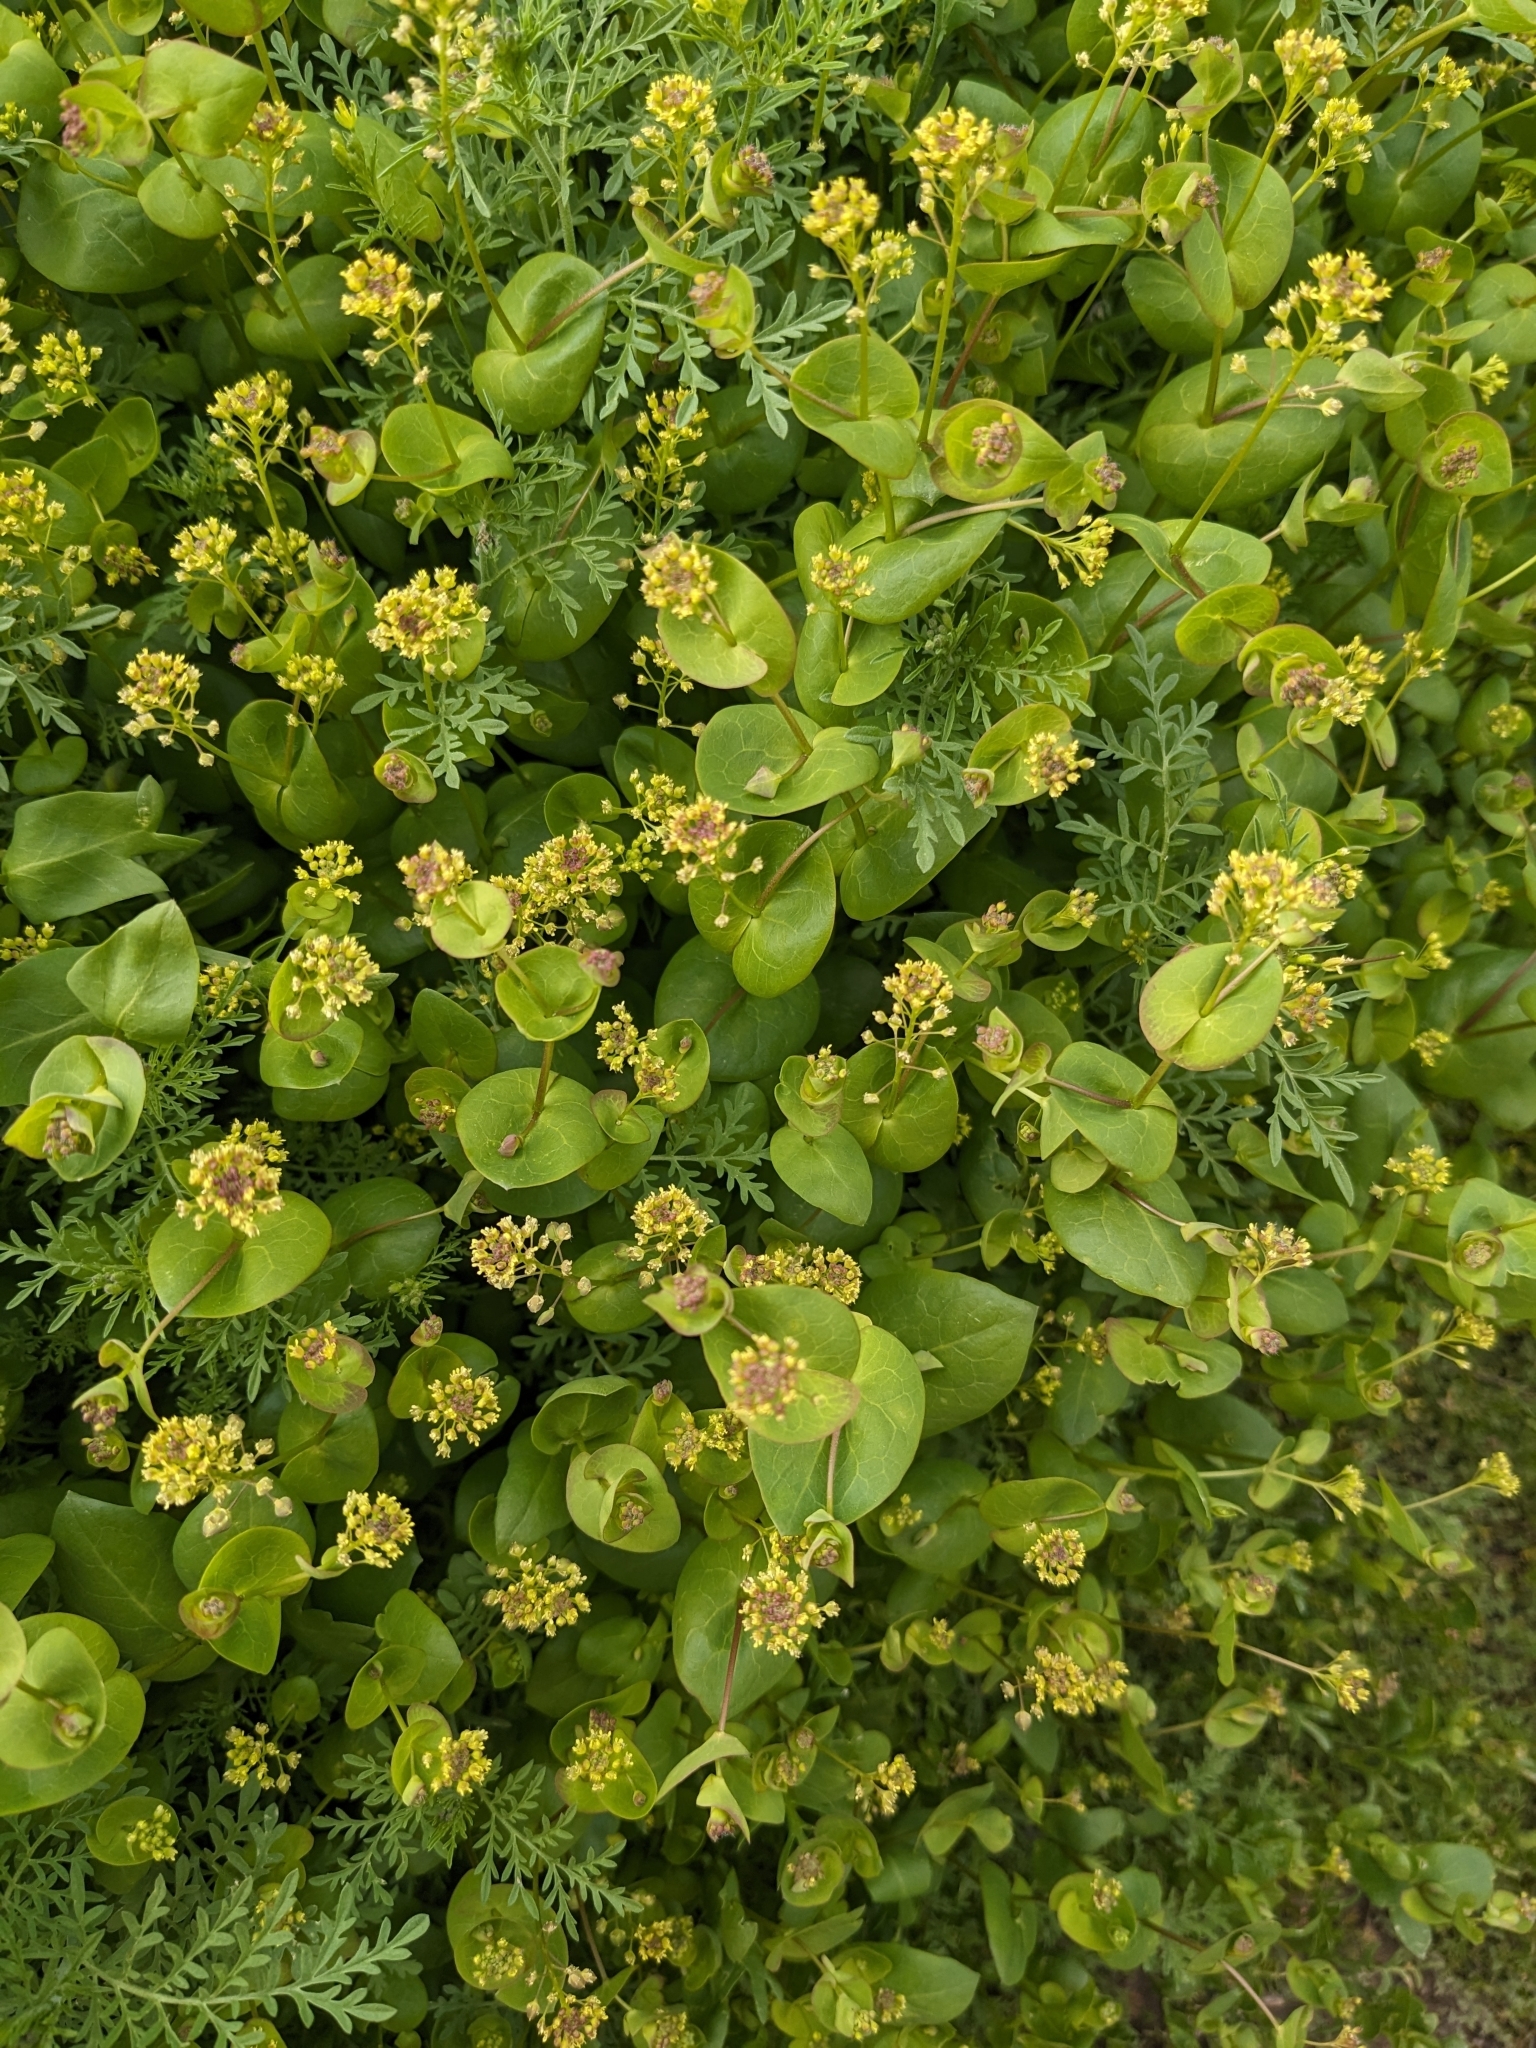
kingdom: Plantae
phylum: Tracheophyta
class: Magnoliopsida
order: Brassicales
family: Brassicaceae
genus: Lepidium
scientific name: Lepidium perfoliatum
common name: Perfoliate pepperwort
